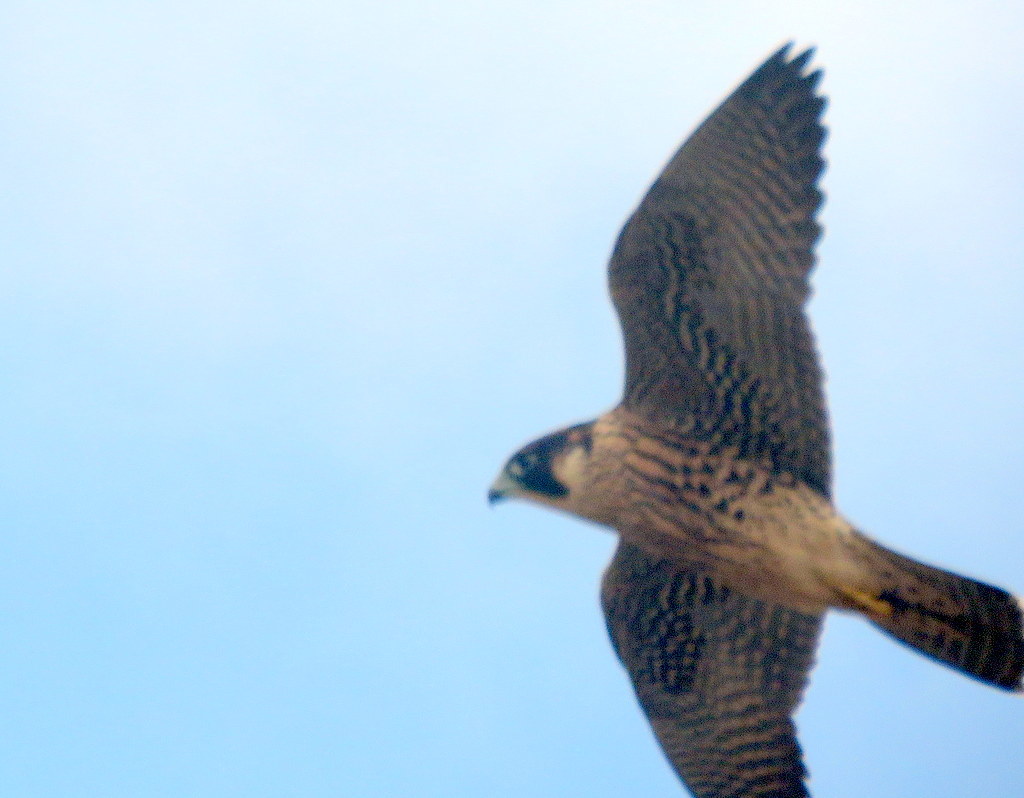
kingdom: Animalia
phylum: Chordata
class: Aves
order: Falconiformes
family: Falconidae
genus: Falco
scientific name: Falco peregrinus
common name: Peregrine falcon
